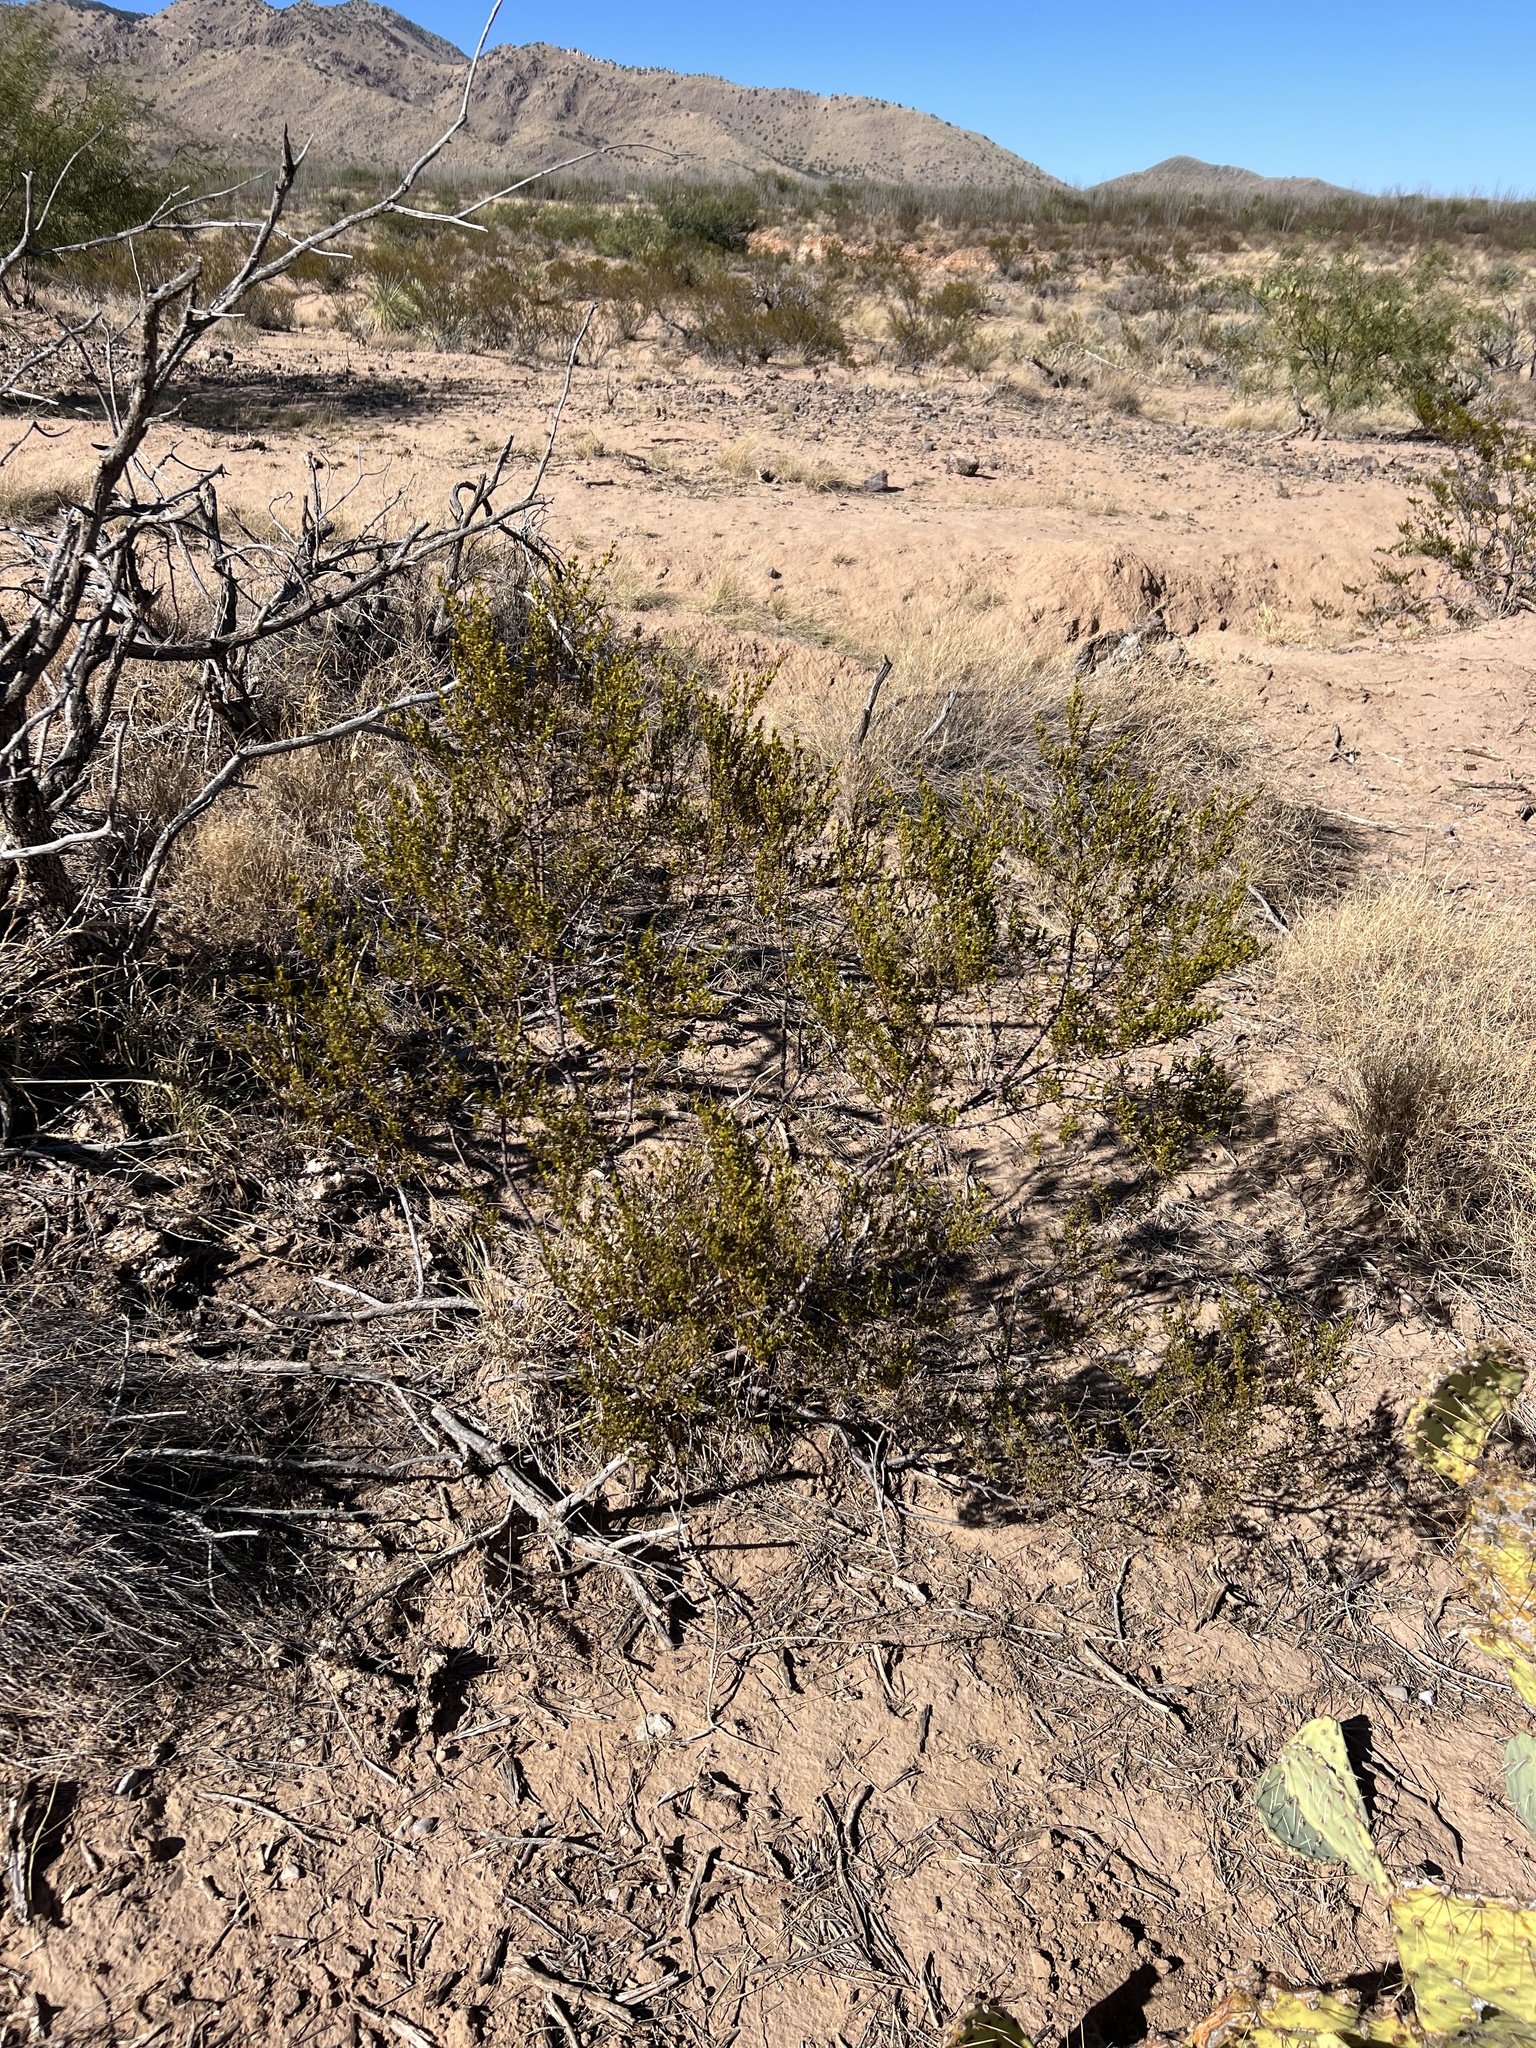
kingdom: Plantae
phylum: Tracheophyta
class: Magnoliopsida
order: Zygophyllales
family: Zygophyllaceae
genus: Larrea
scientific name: Larrea tridentata
